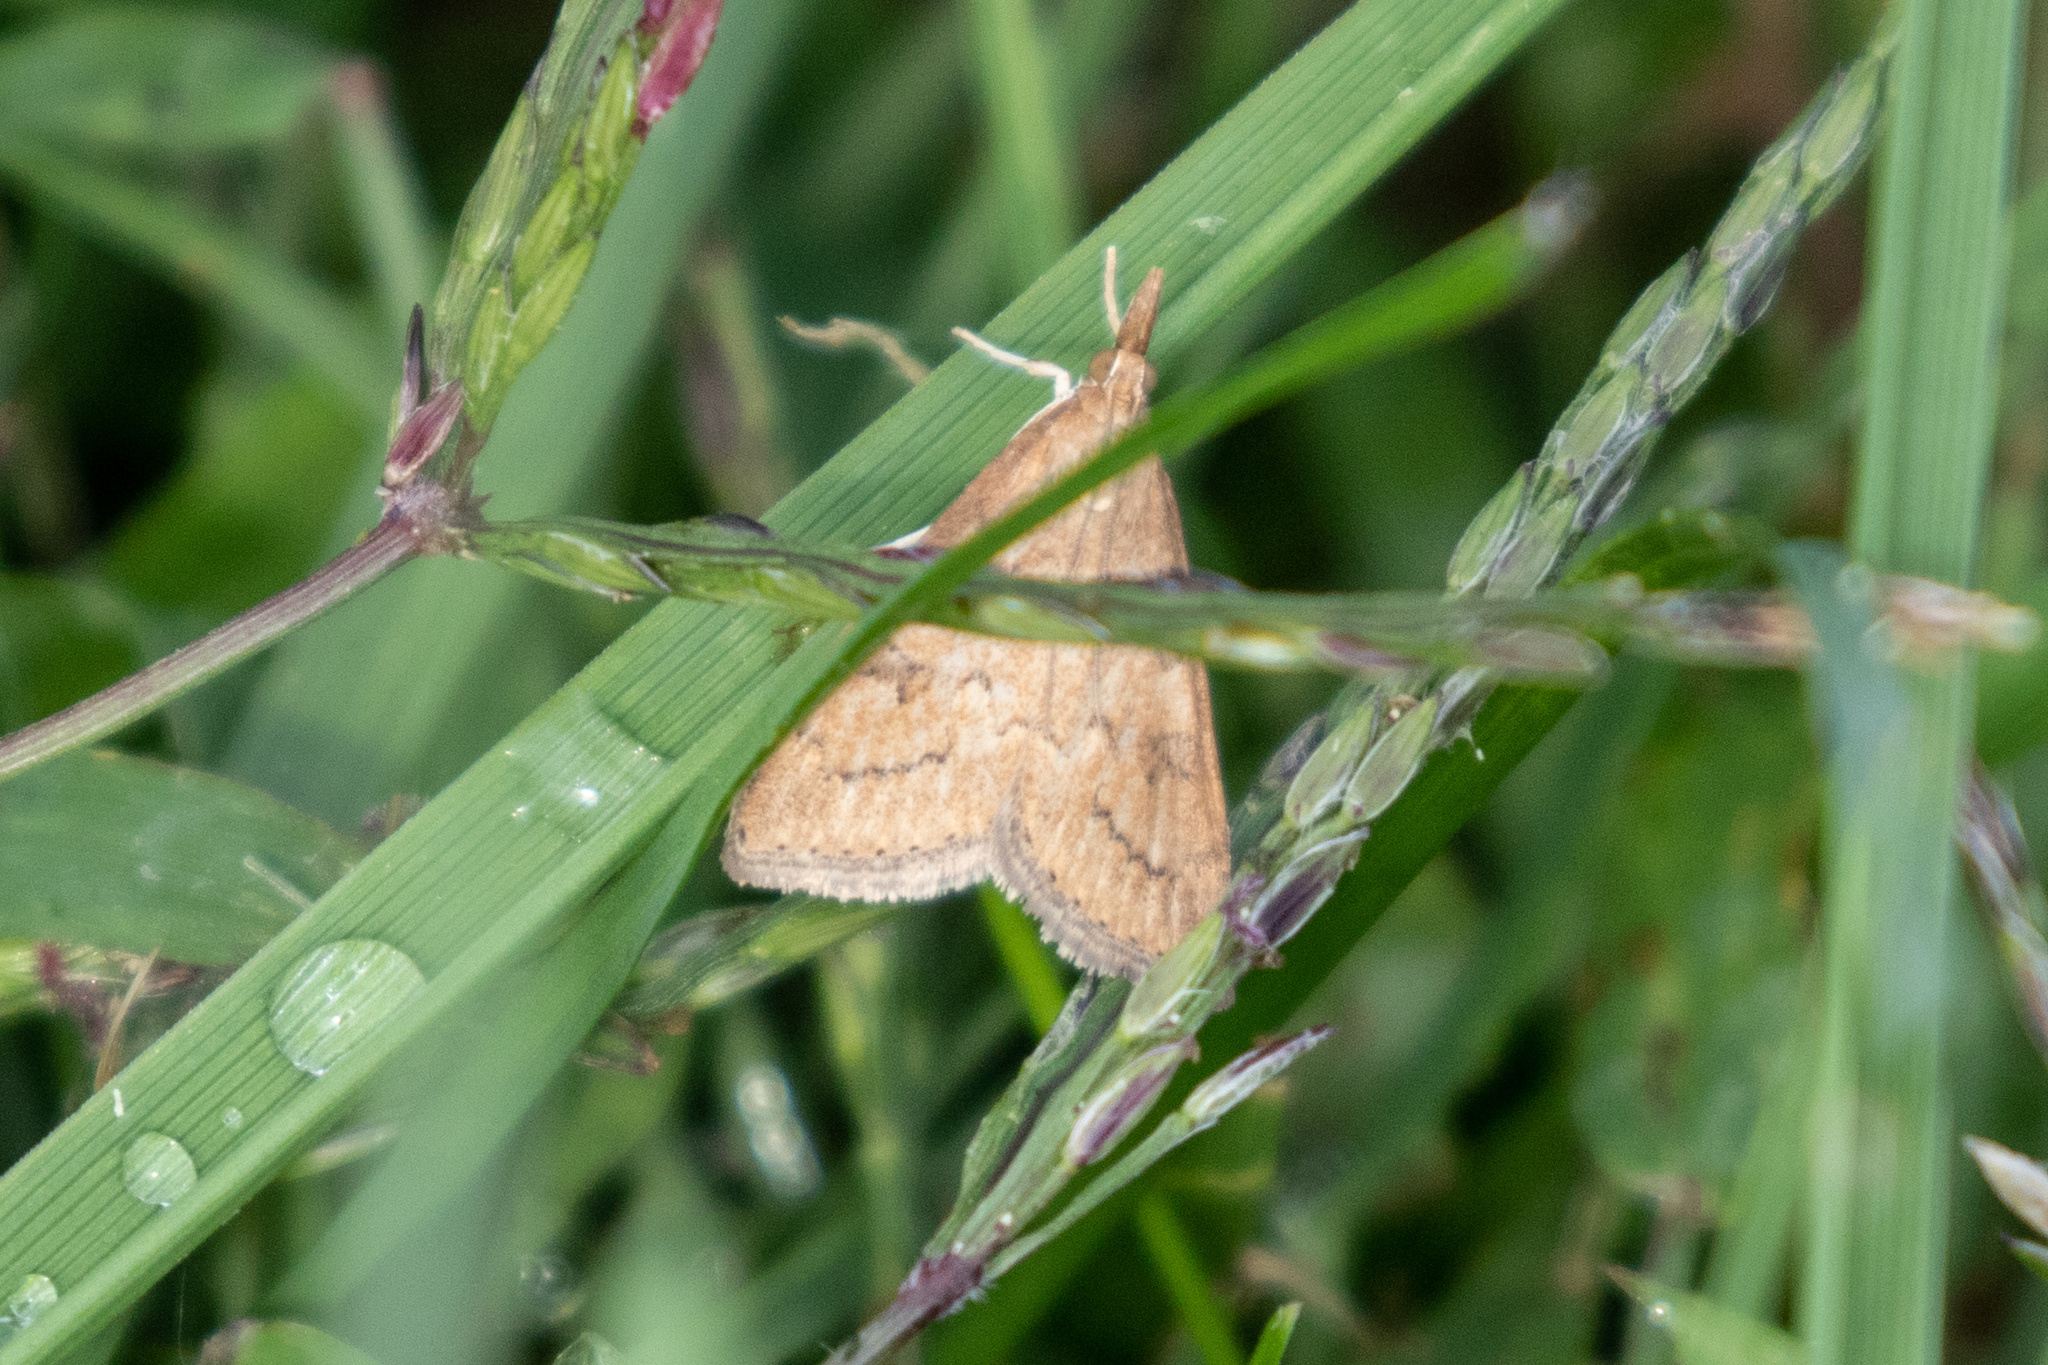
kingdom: Animalia
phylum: Arthropoda
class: Insecta
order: Lepidoptera
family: Crambidae
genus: Udea
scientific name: Udea rubigalis
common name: Celery leaftier moth
